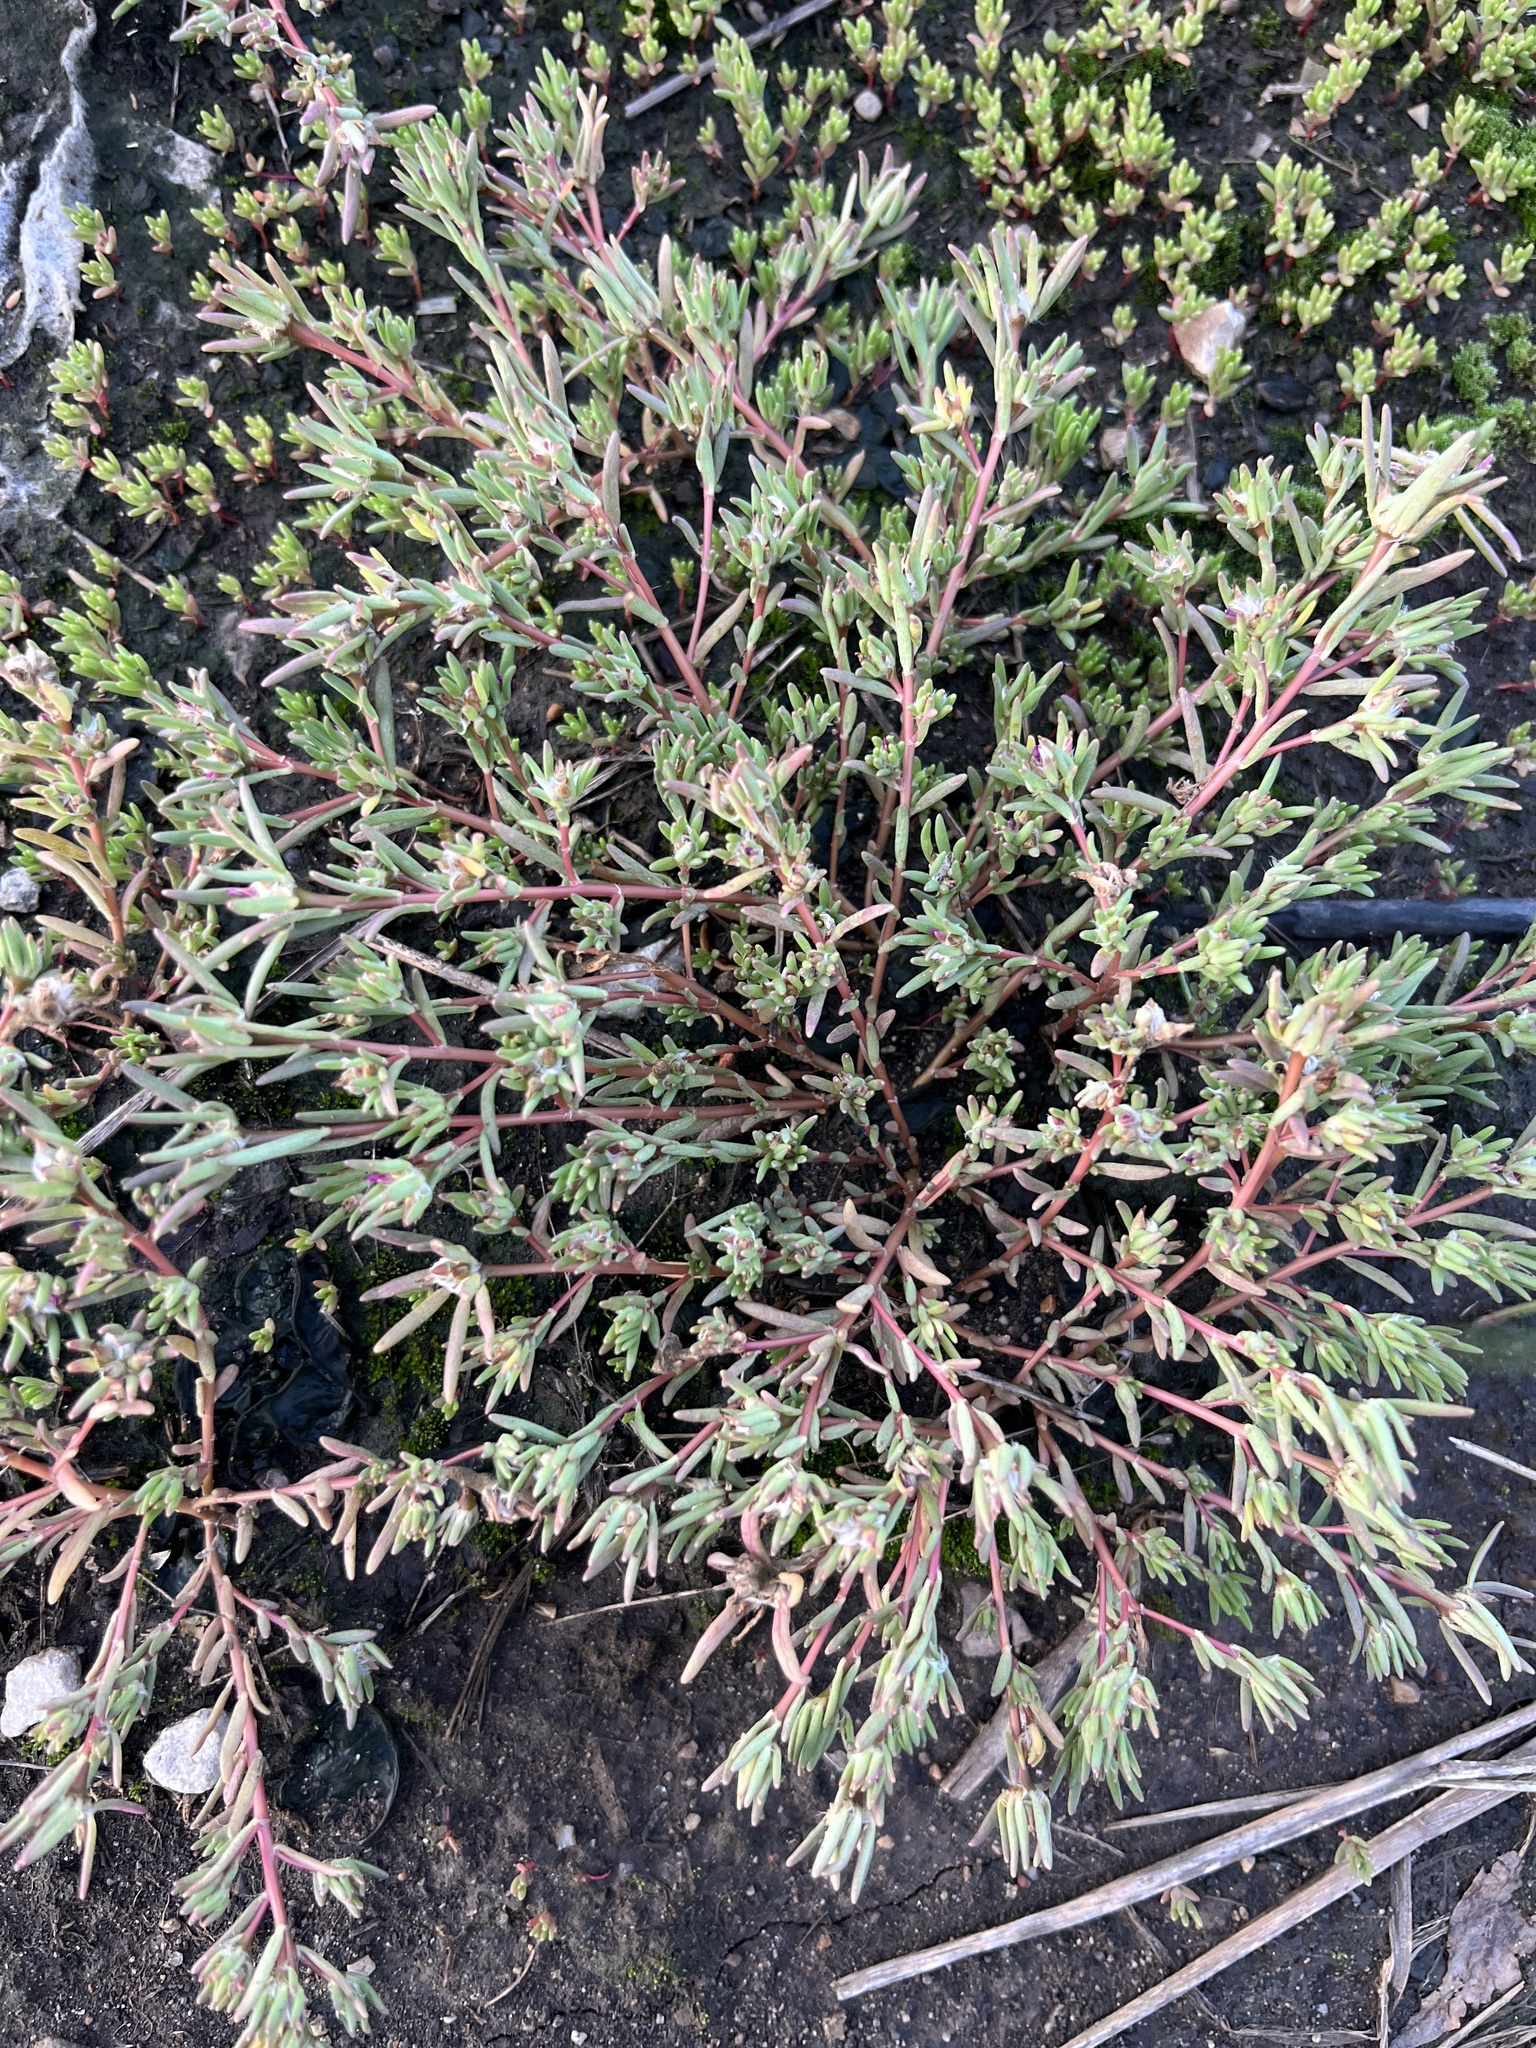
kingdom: Plantae
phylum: Tracheophyta
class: Magnoliopsida
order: Caryophyllales
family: Portulacaceae
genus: Portulaca
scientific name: Portulaca pilosa
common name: Kiss me quick
